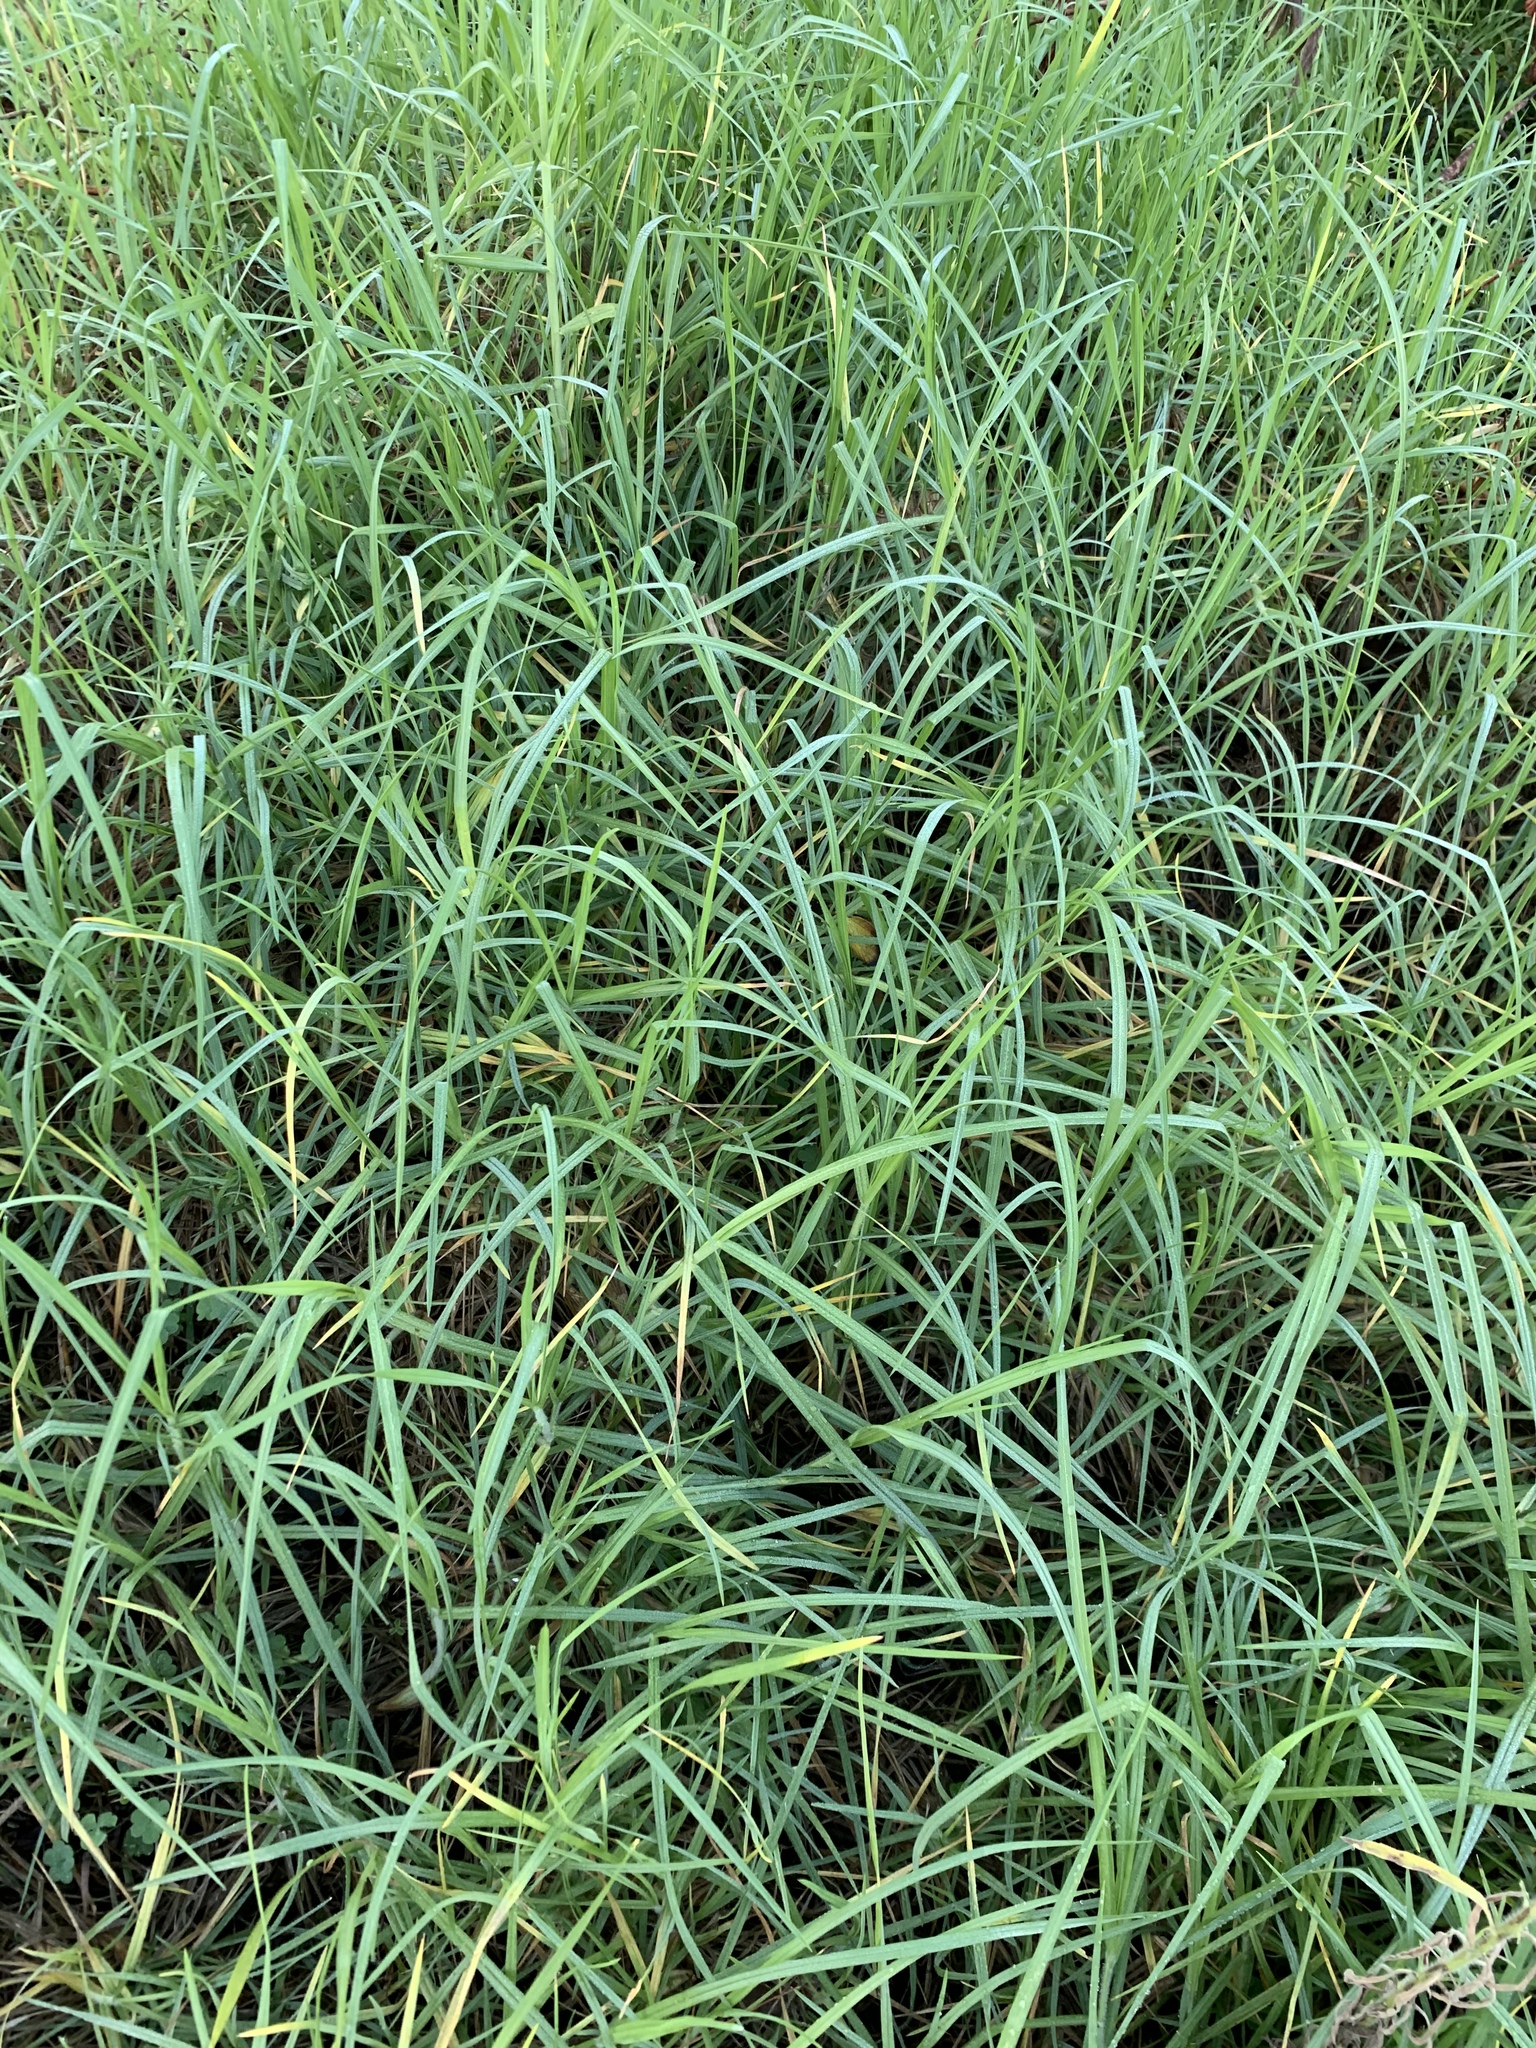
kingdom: Plantae
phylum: Tracheophyta
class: Liliopsida
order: Poales
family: Poaceae
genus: Cenchrus
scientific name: Cenchrus clandestinus
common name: Kikuyugrass
